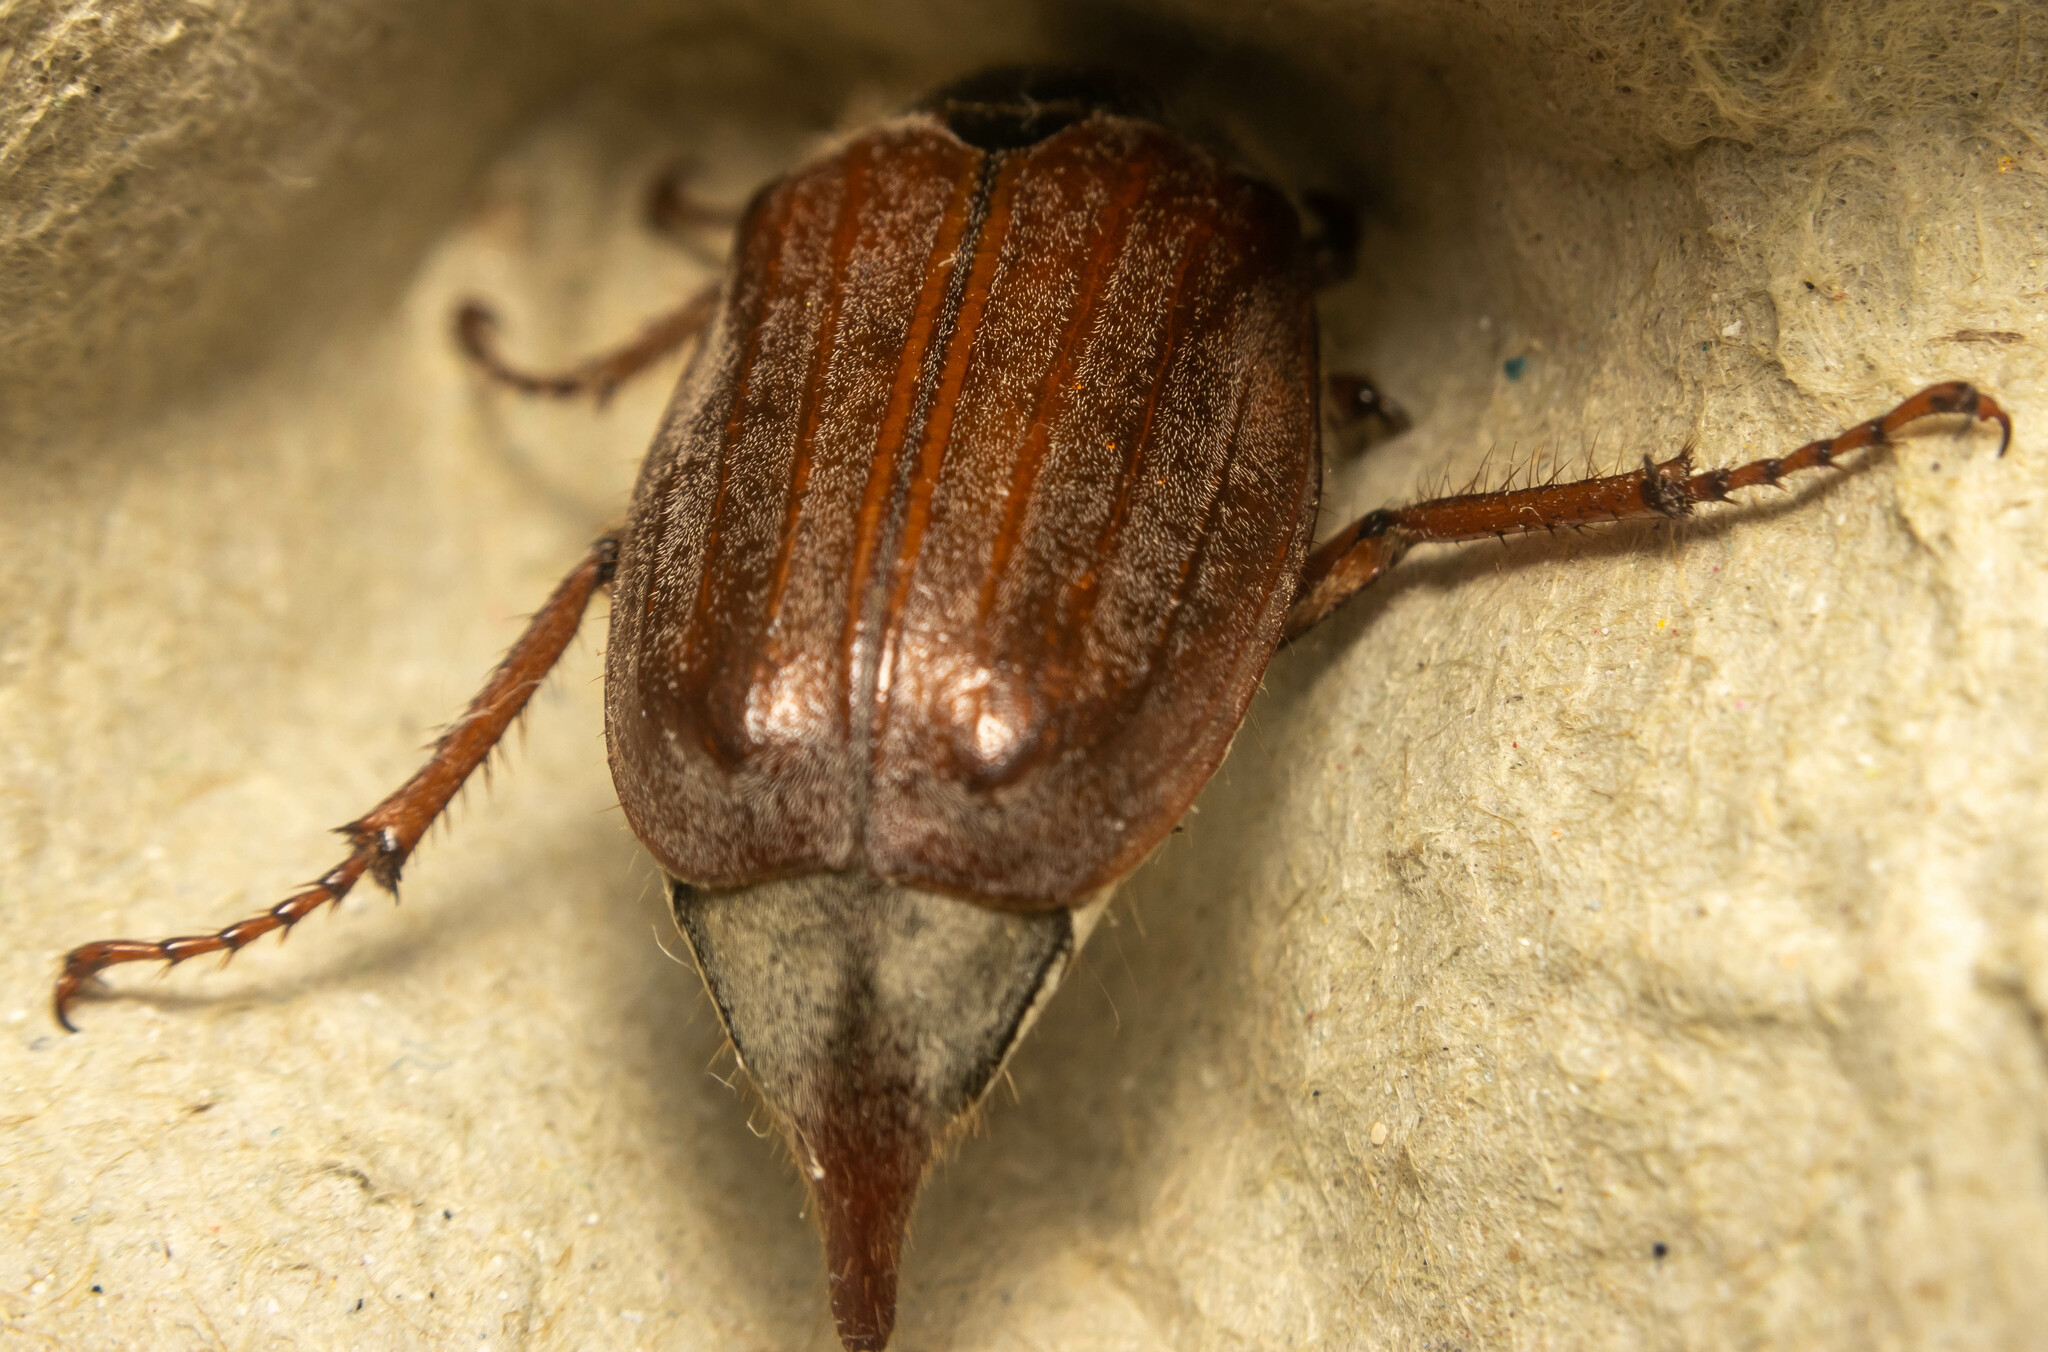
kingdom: Animalia
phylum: Arthropoda
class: Insecta
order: Coleoptera
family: Scarabaeidae
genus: Melolontha
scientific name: Melolontha melolontha
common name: Cockchafer maybeetle
